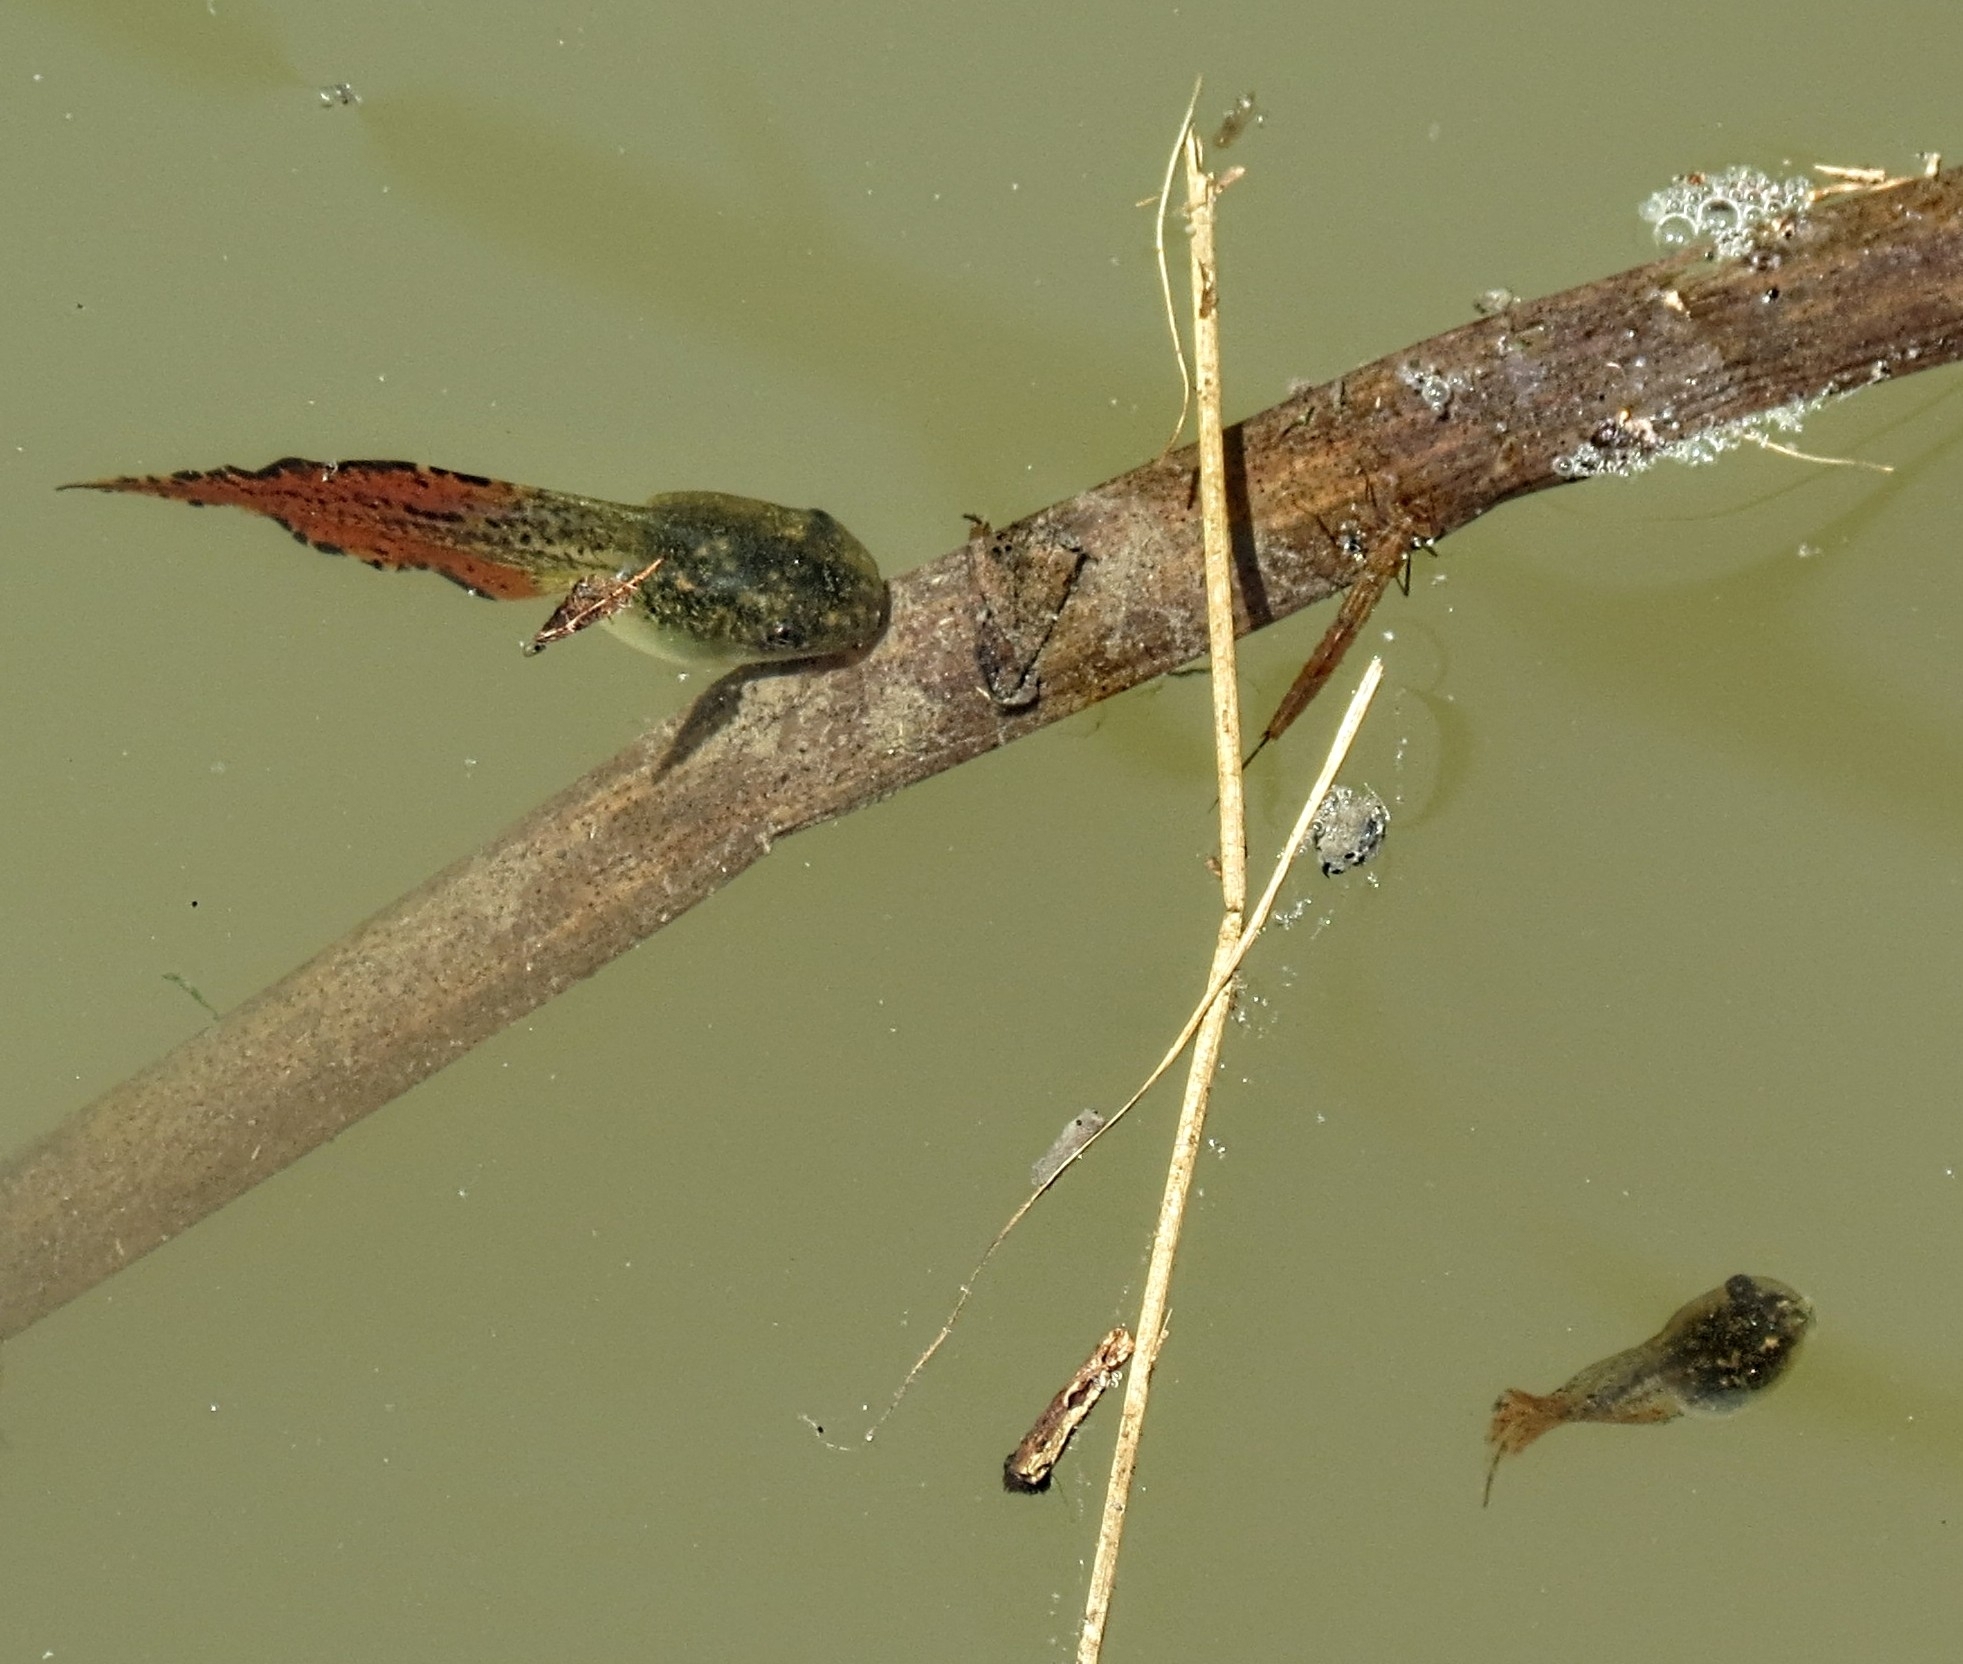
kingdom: Animalia
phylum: Chordata
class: Amphibia
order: Anura
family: Hylidae
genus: Dryophytes
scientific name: Dryophytes versicolor
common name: Gray treefrog
